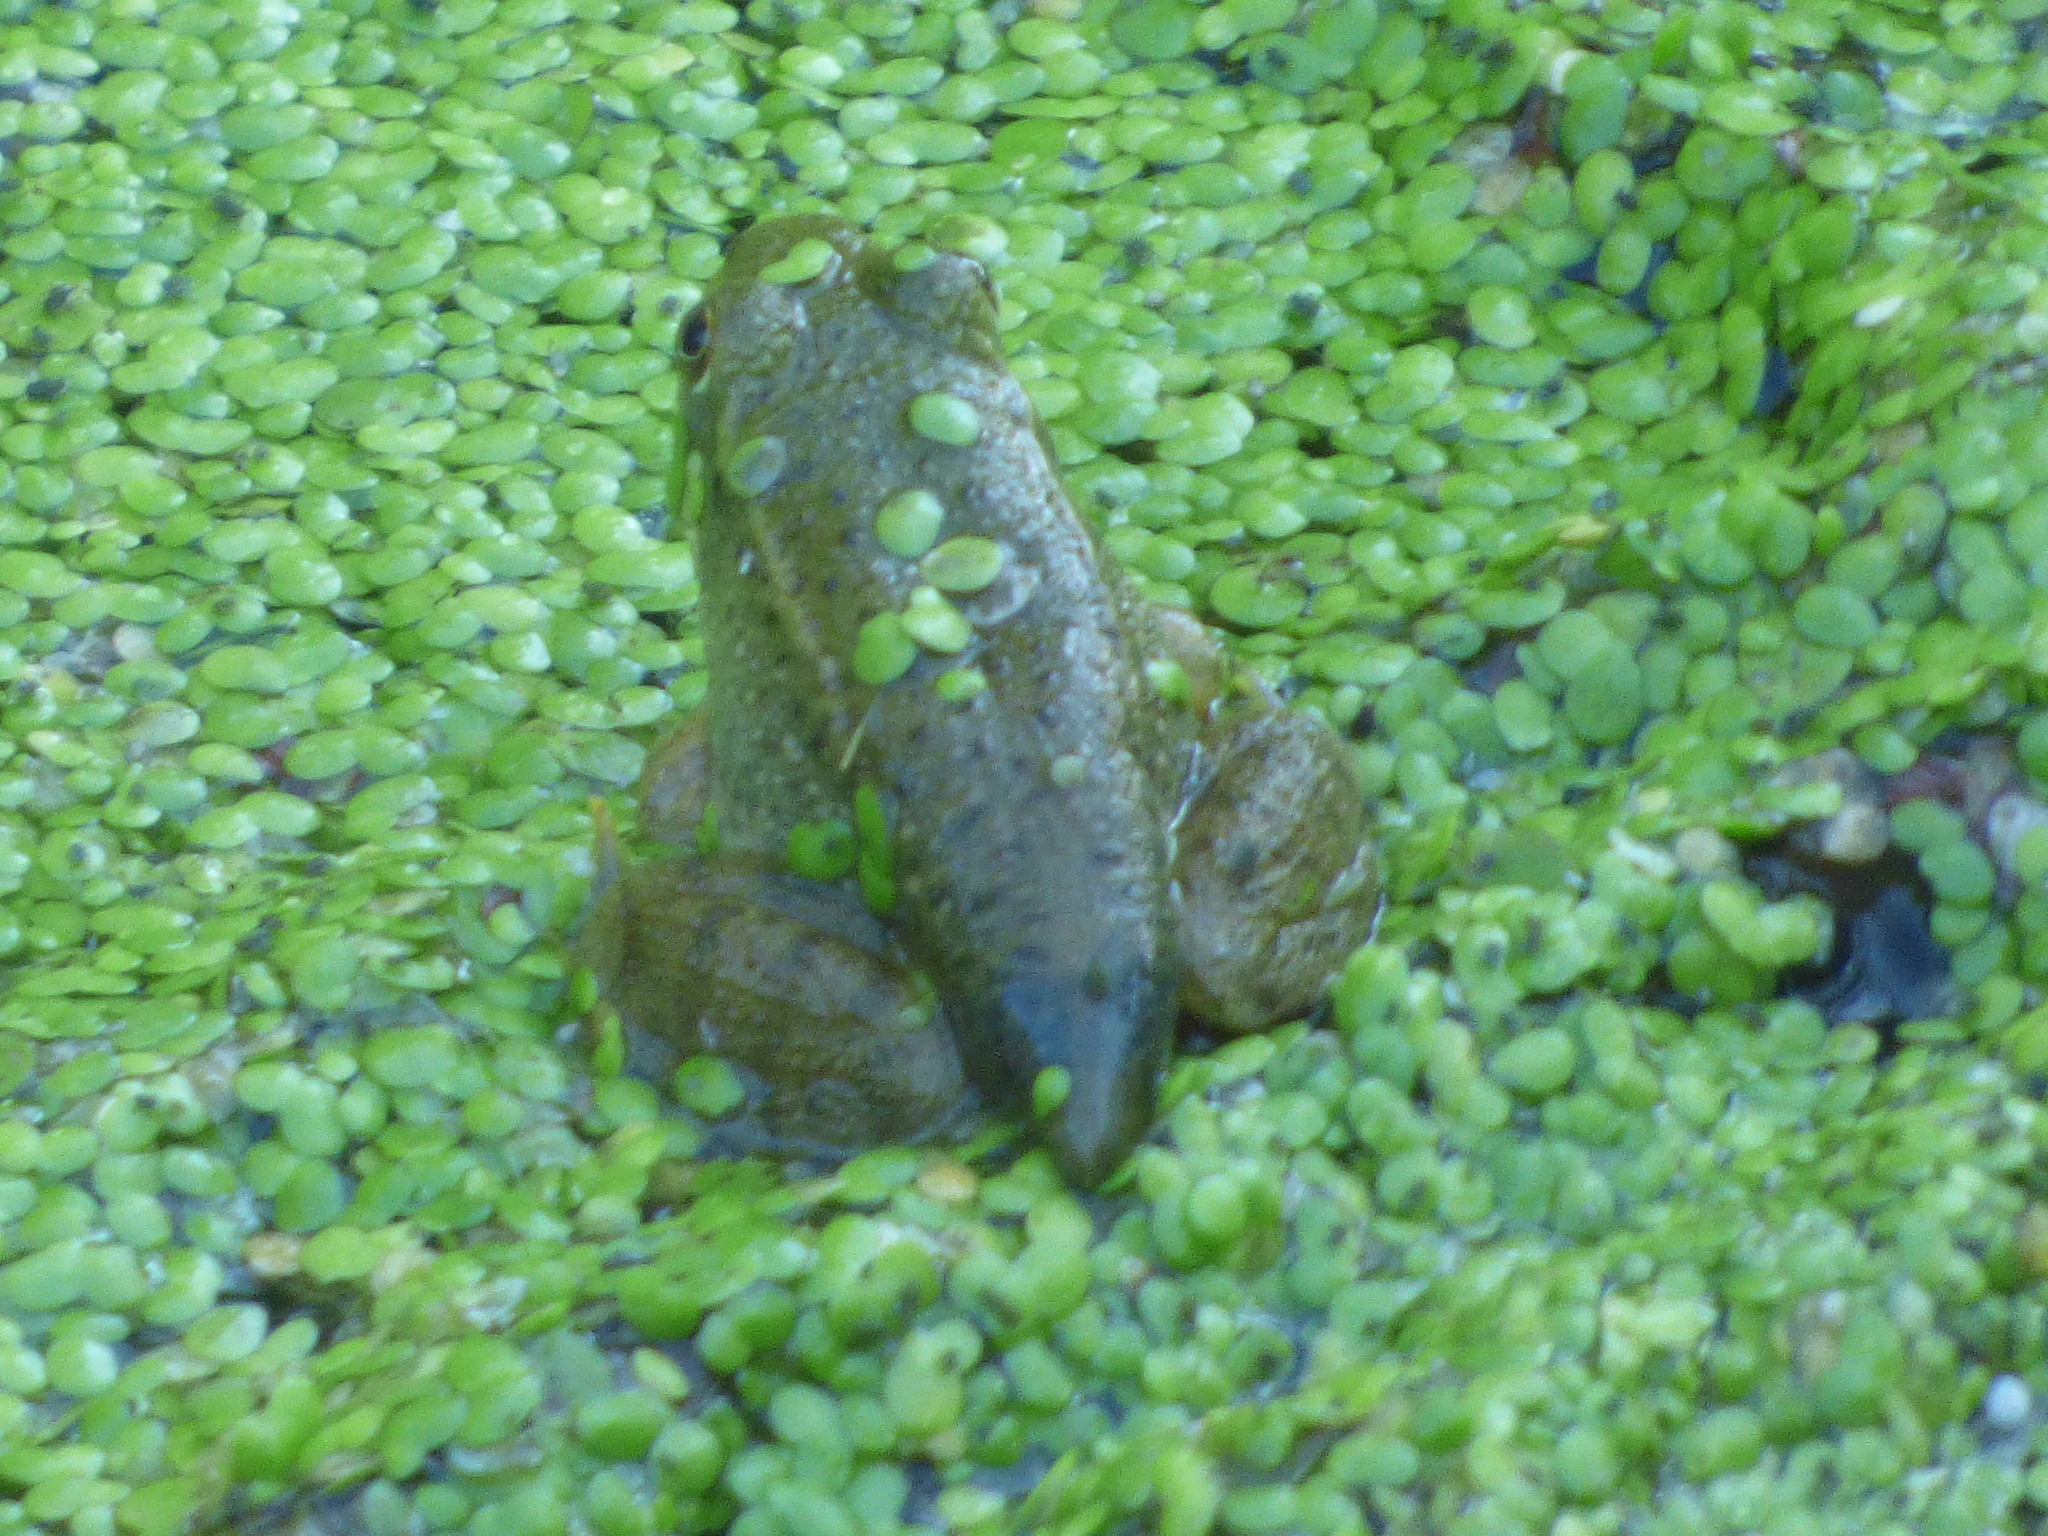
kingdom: Animalia
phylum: Chordata
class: Amphibia
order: Anura
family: Ranidae
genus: Lithobates
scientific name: Lithobates clamitans
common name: Green frog
